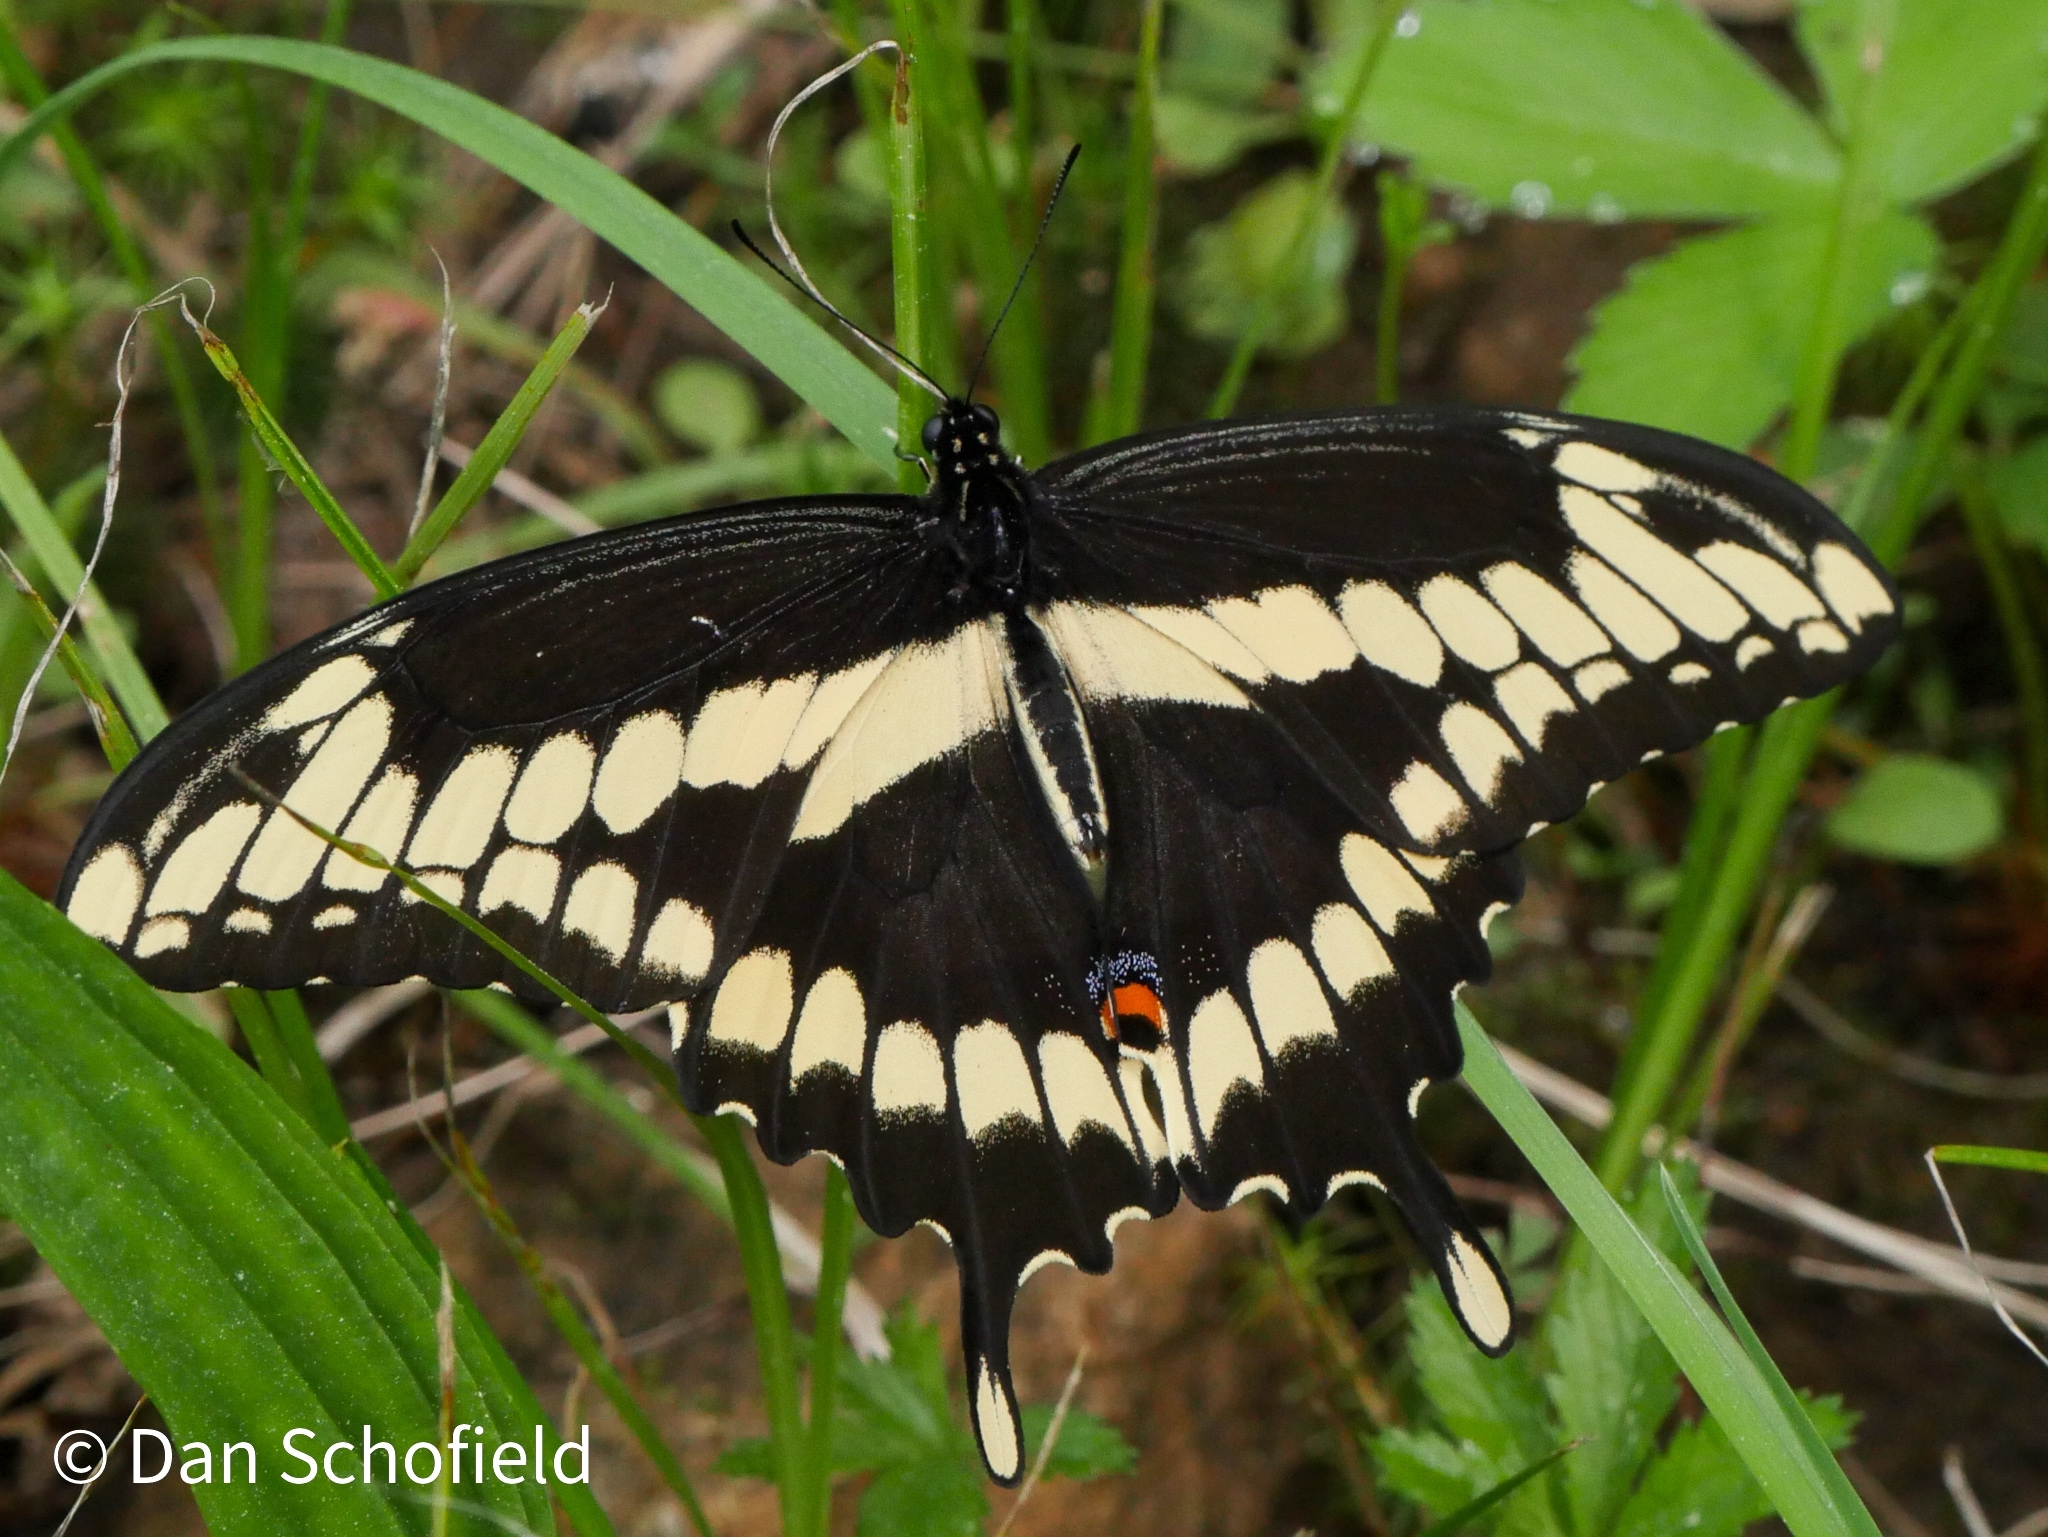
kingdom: Animalia
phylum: Arthropoda
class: Insecta
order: Lepidoptera
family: Papilionidae
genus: Papilio
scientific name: Papilio cresphontes
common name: Giant swallowtail
